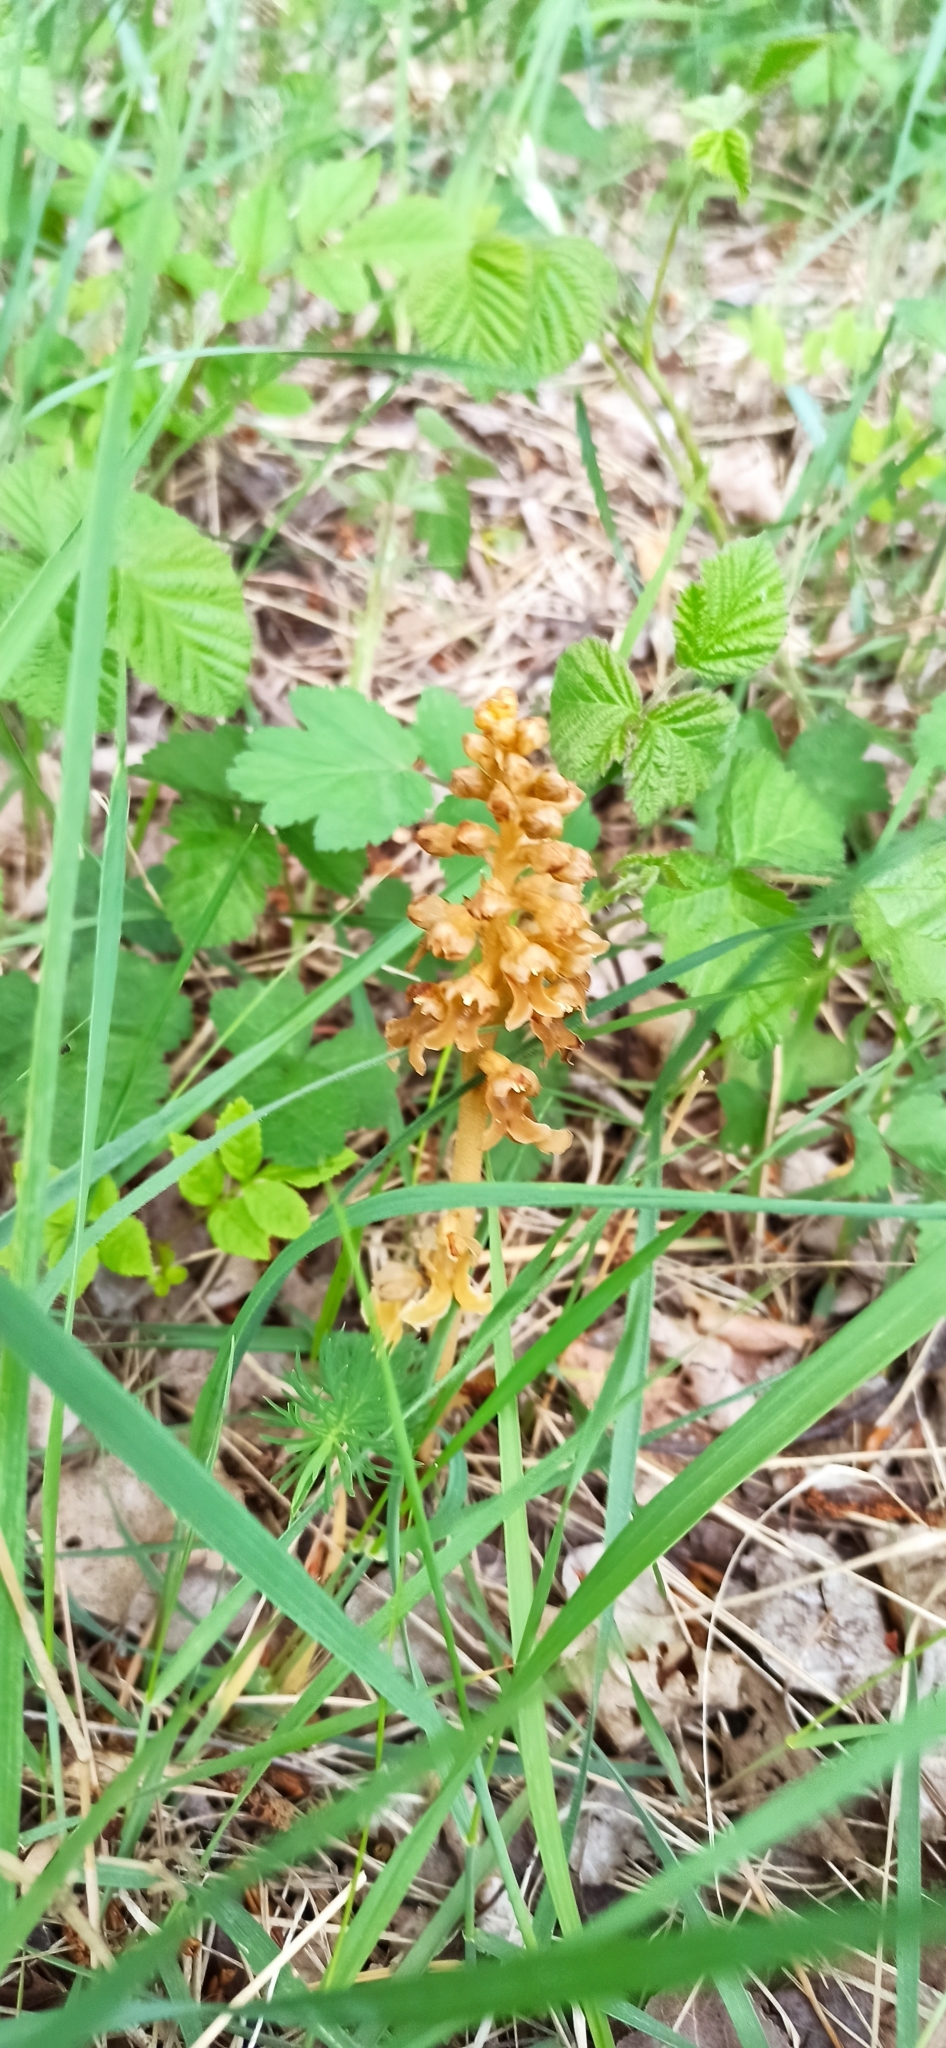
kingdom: Plantae
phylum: Tracheophyta
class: Liliopsida
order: Asparagales
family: Orchidaceae
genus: Neottia
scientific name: Neottia nidus-avis
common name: Bird's-nest orchid
